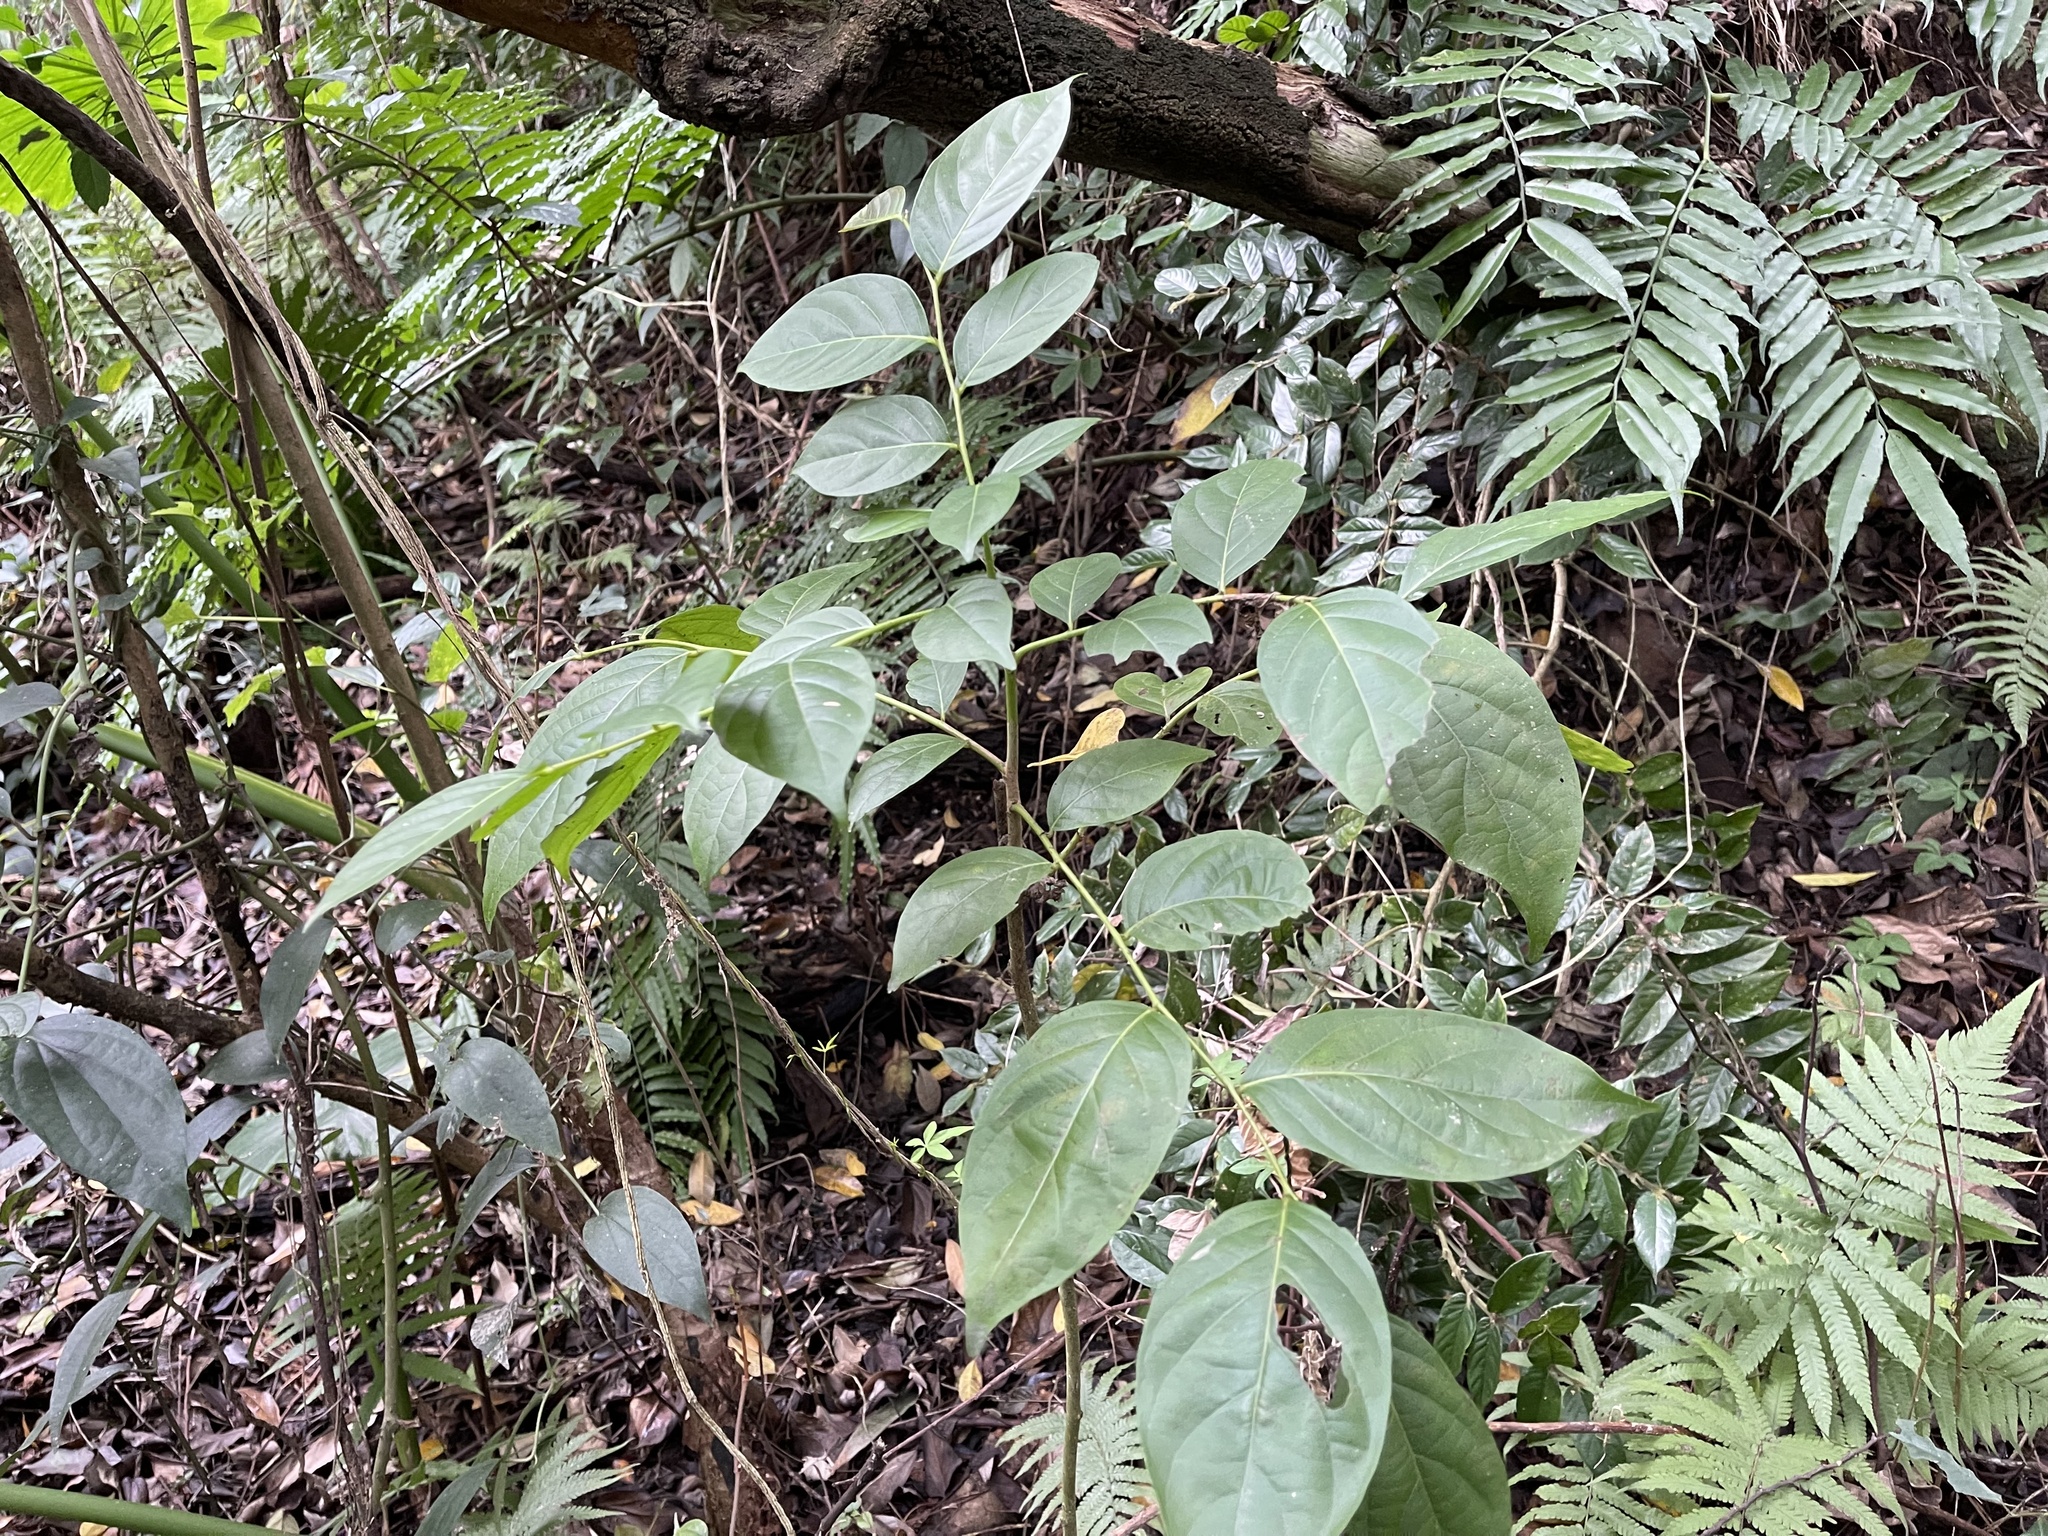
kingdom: Plantae
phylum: Tracheophyta
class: Magnoliopsida
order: Malpighiales
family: Phyllanthaceae
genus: Glochidion
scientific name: Glochidion zeylanicum
